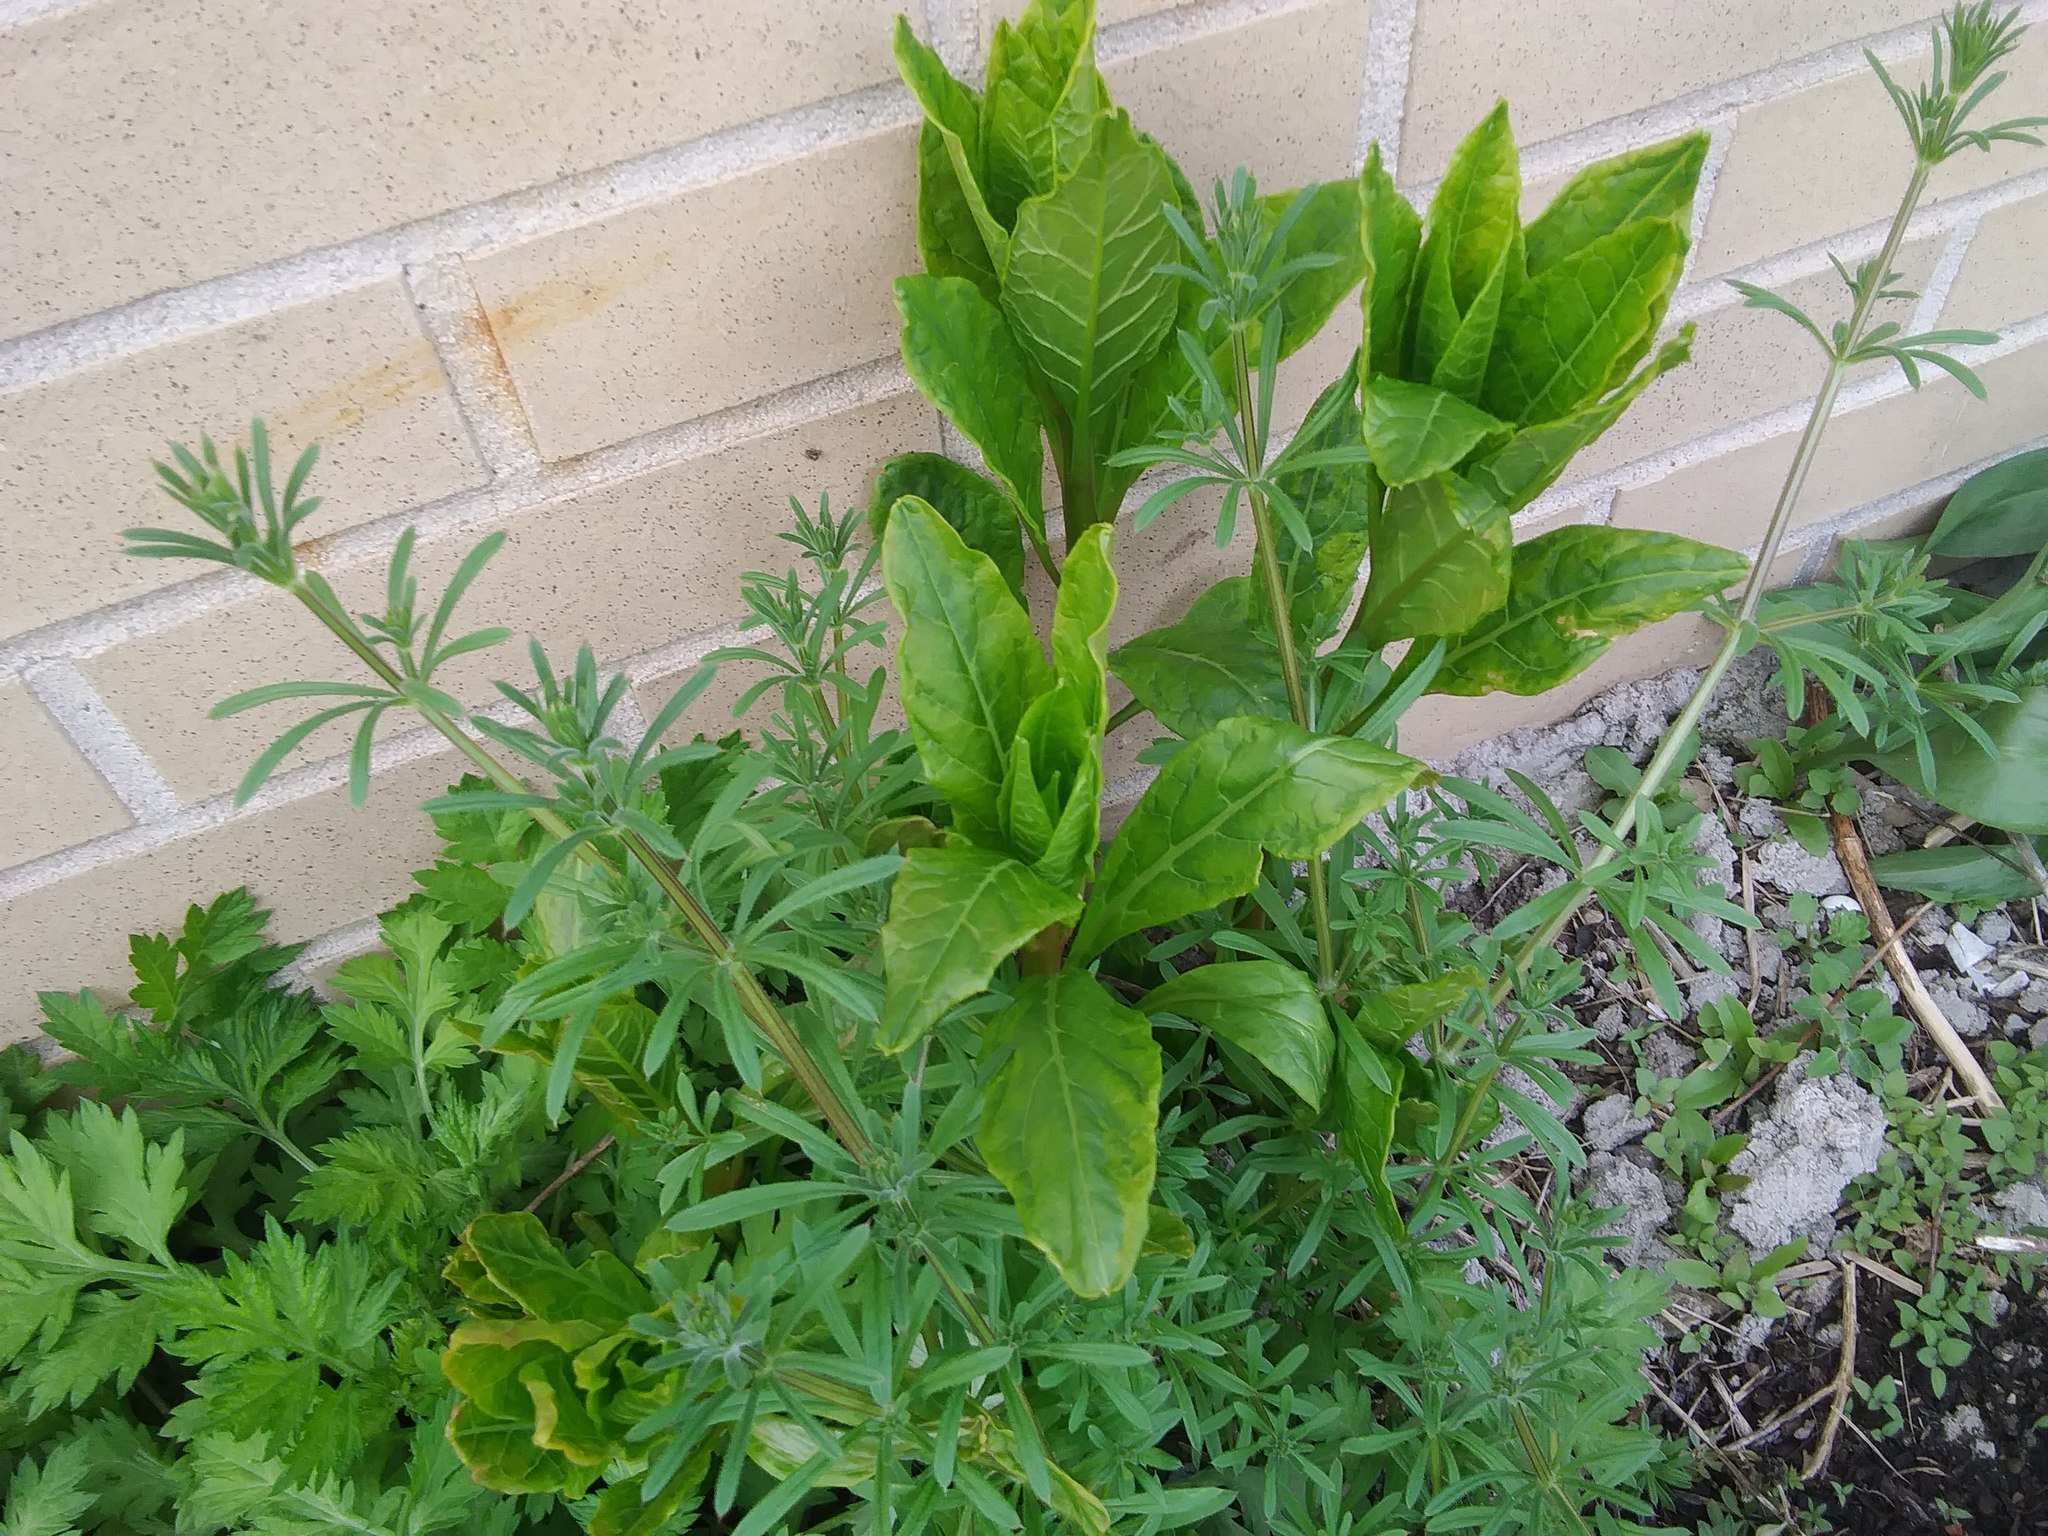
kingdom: Plantae
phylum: Tracheophyta
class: Magnoliopsida
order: Caryophyllales
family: Phytolaccaceae
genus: Phytolacca
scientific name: Phytolacca americana
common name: American pokeweed
